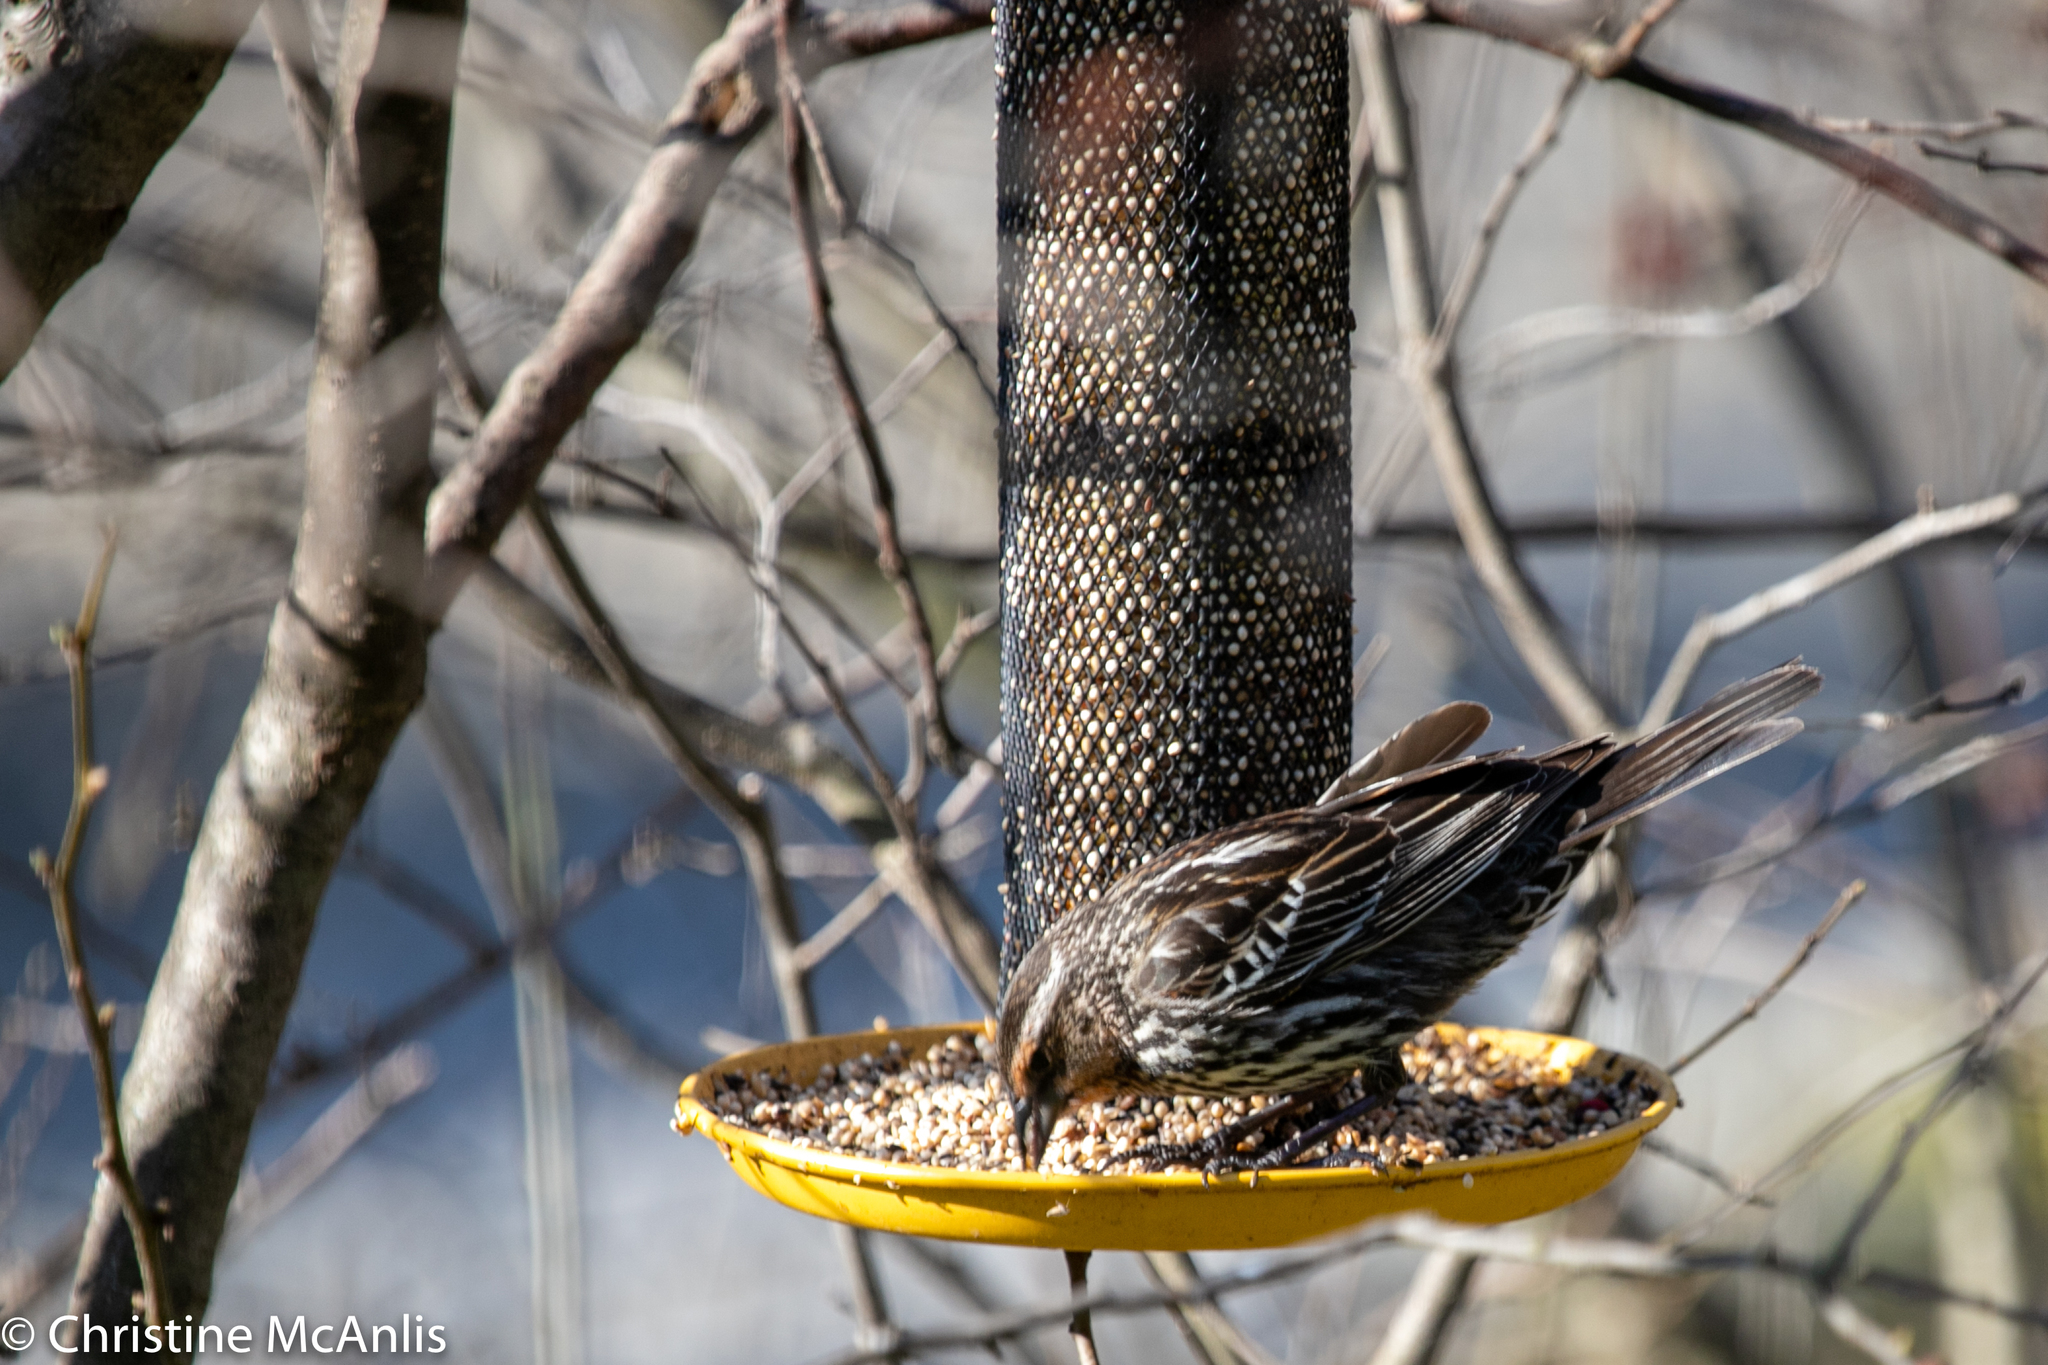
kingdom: Animalia
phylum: Chordata
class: Aves
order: Passeriformes
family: Icteridae
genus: Agelaius
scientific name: Agelaius phoeniceus
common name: Red-winged blackbird
